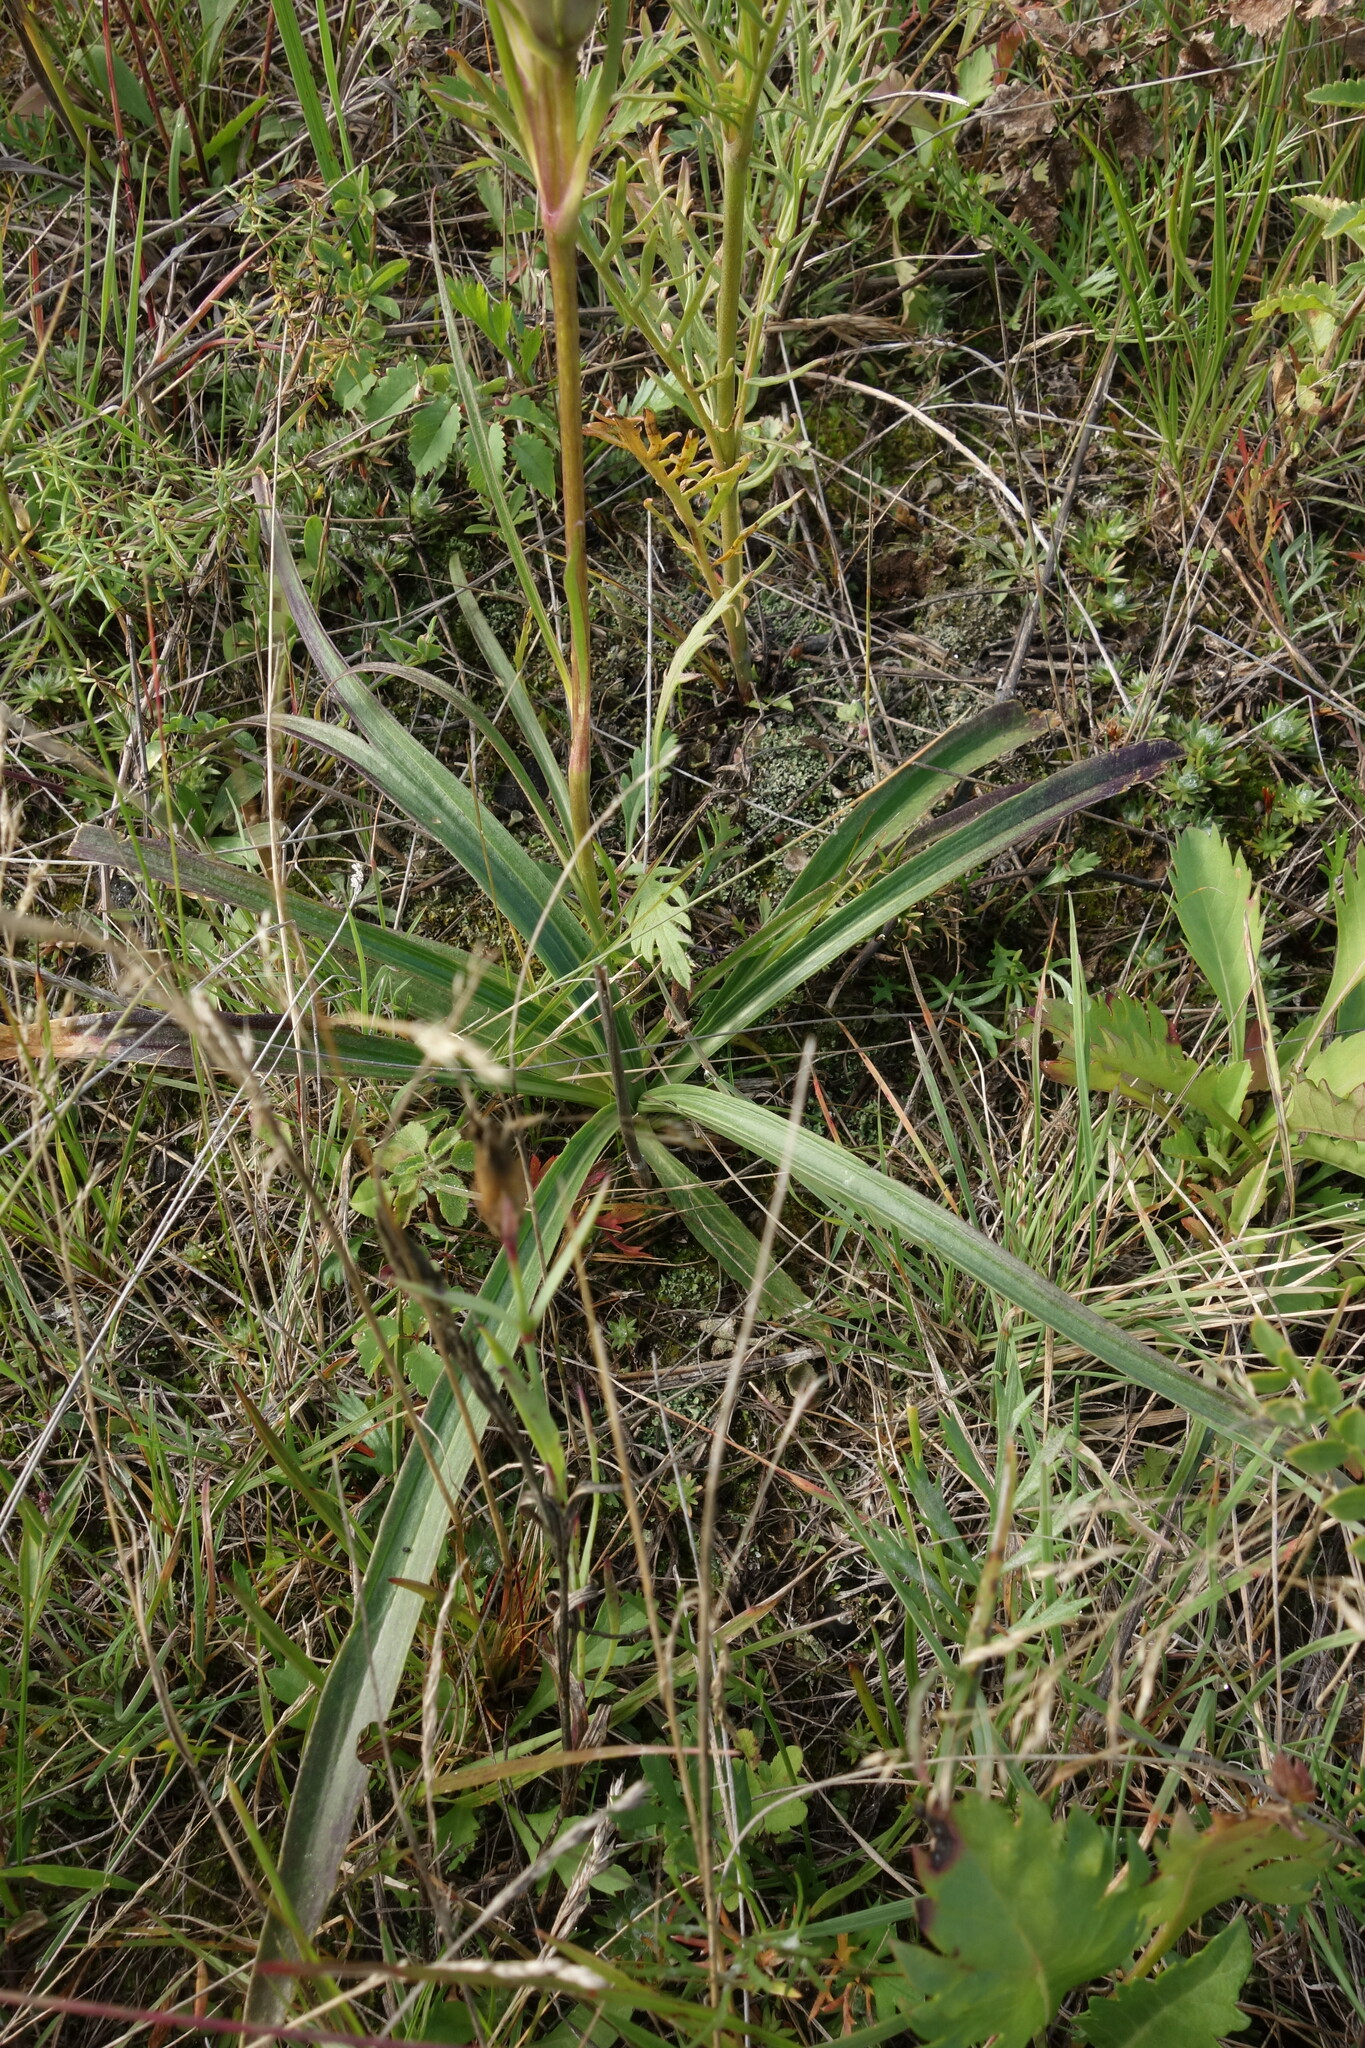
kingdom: Plantae
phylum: Tracheophyta
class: Magnoliopsida
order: Gentianales
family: Gentianaceae
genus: Gentiana
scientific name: Gentiana decumbens
